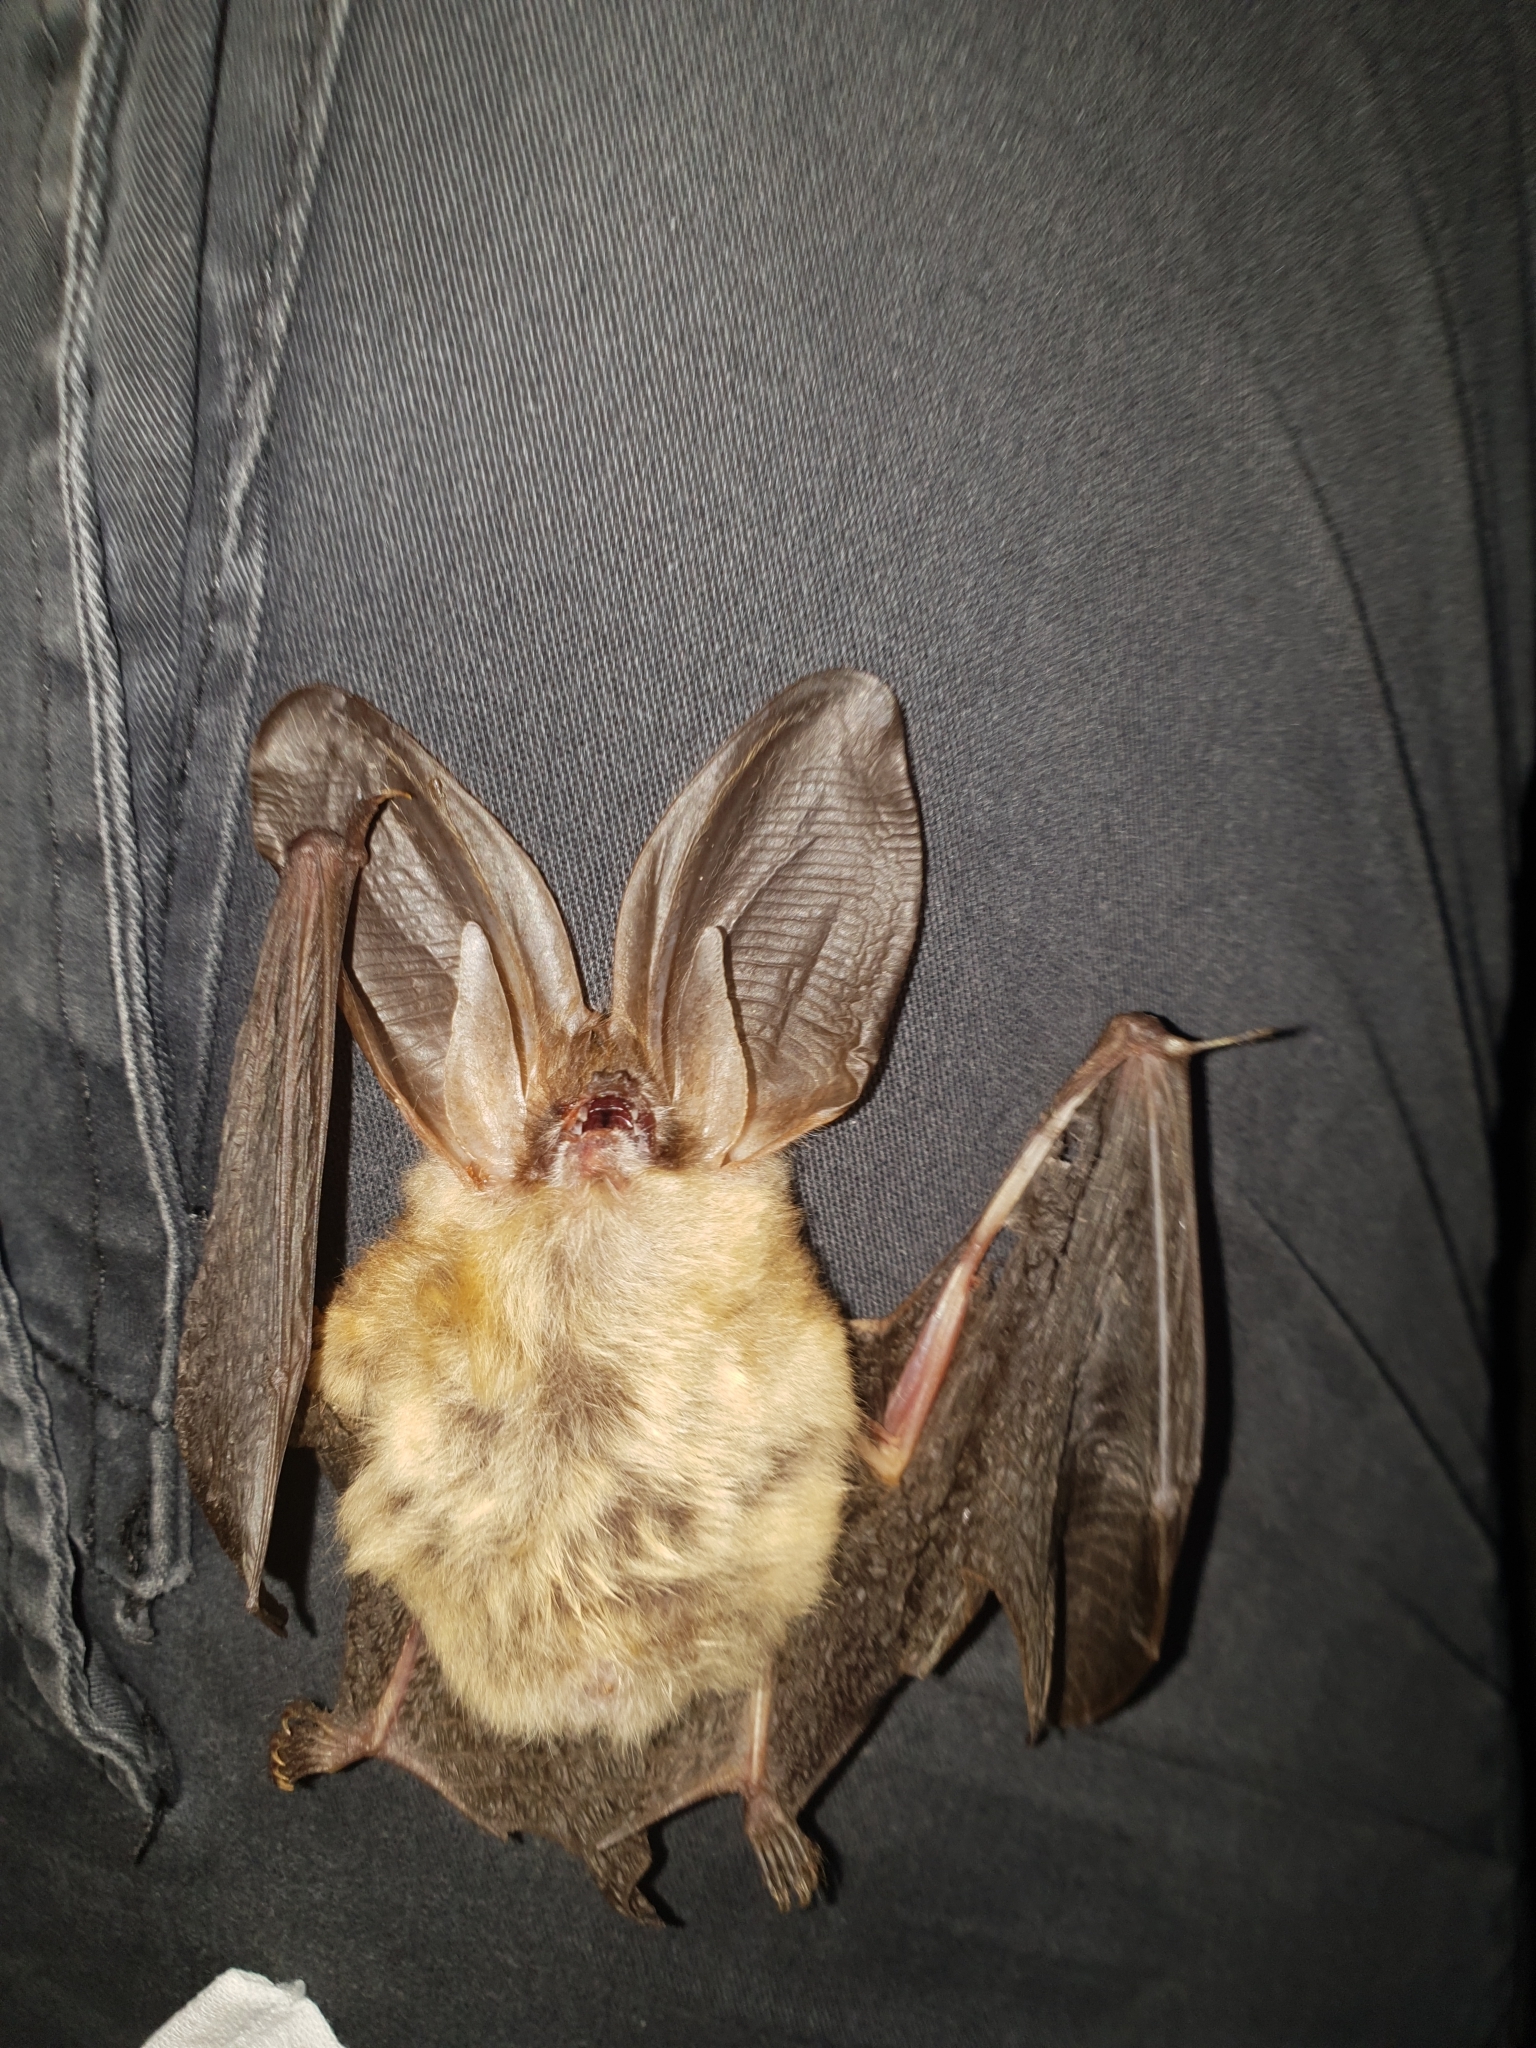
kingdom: Animalia
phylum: Chordata
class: Mammalia
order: Chiroptera
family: Vespertilionidae
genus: Plecotus
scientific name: Plecotus auritus
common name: Brown long-eared bat
